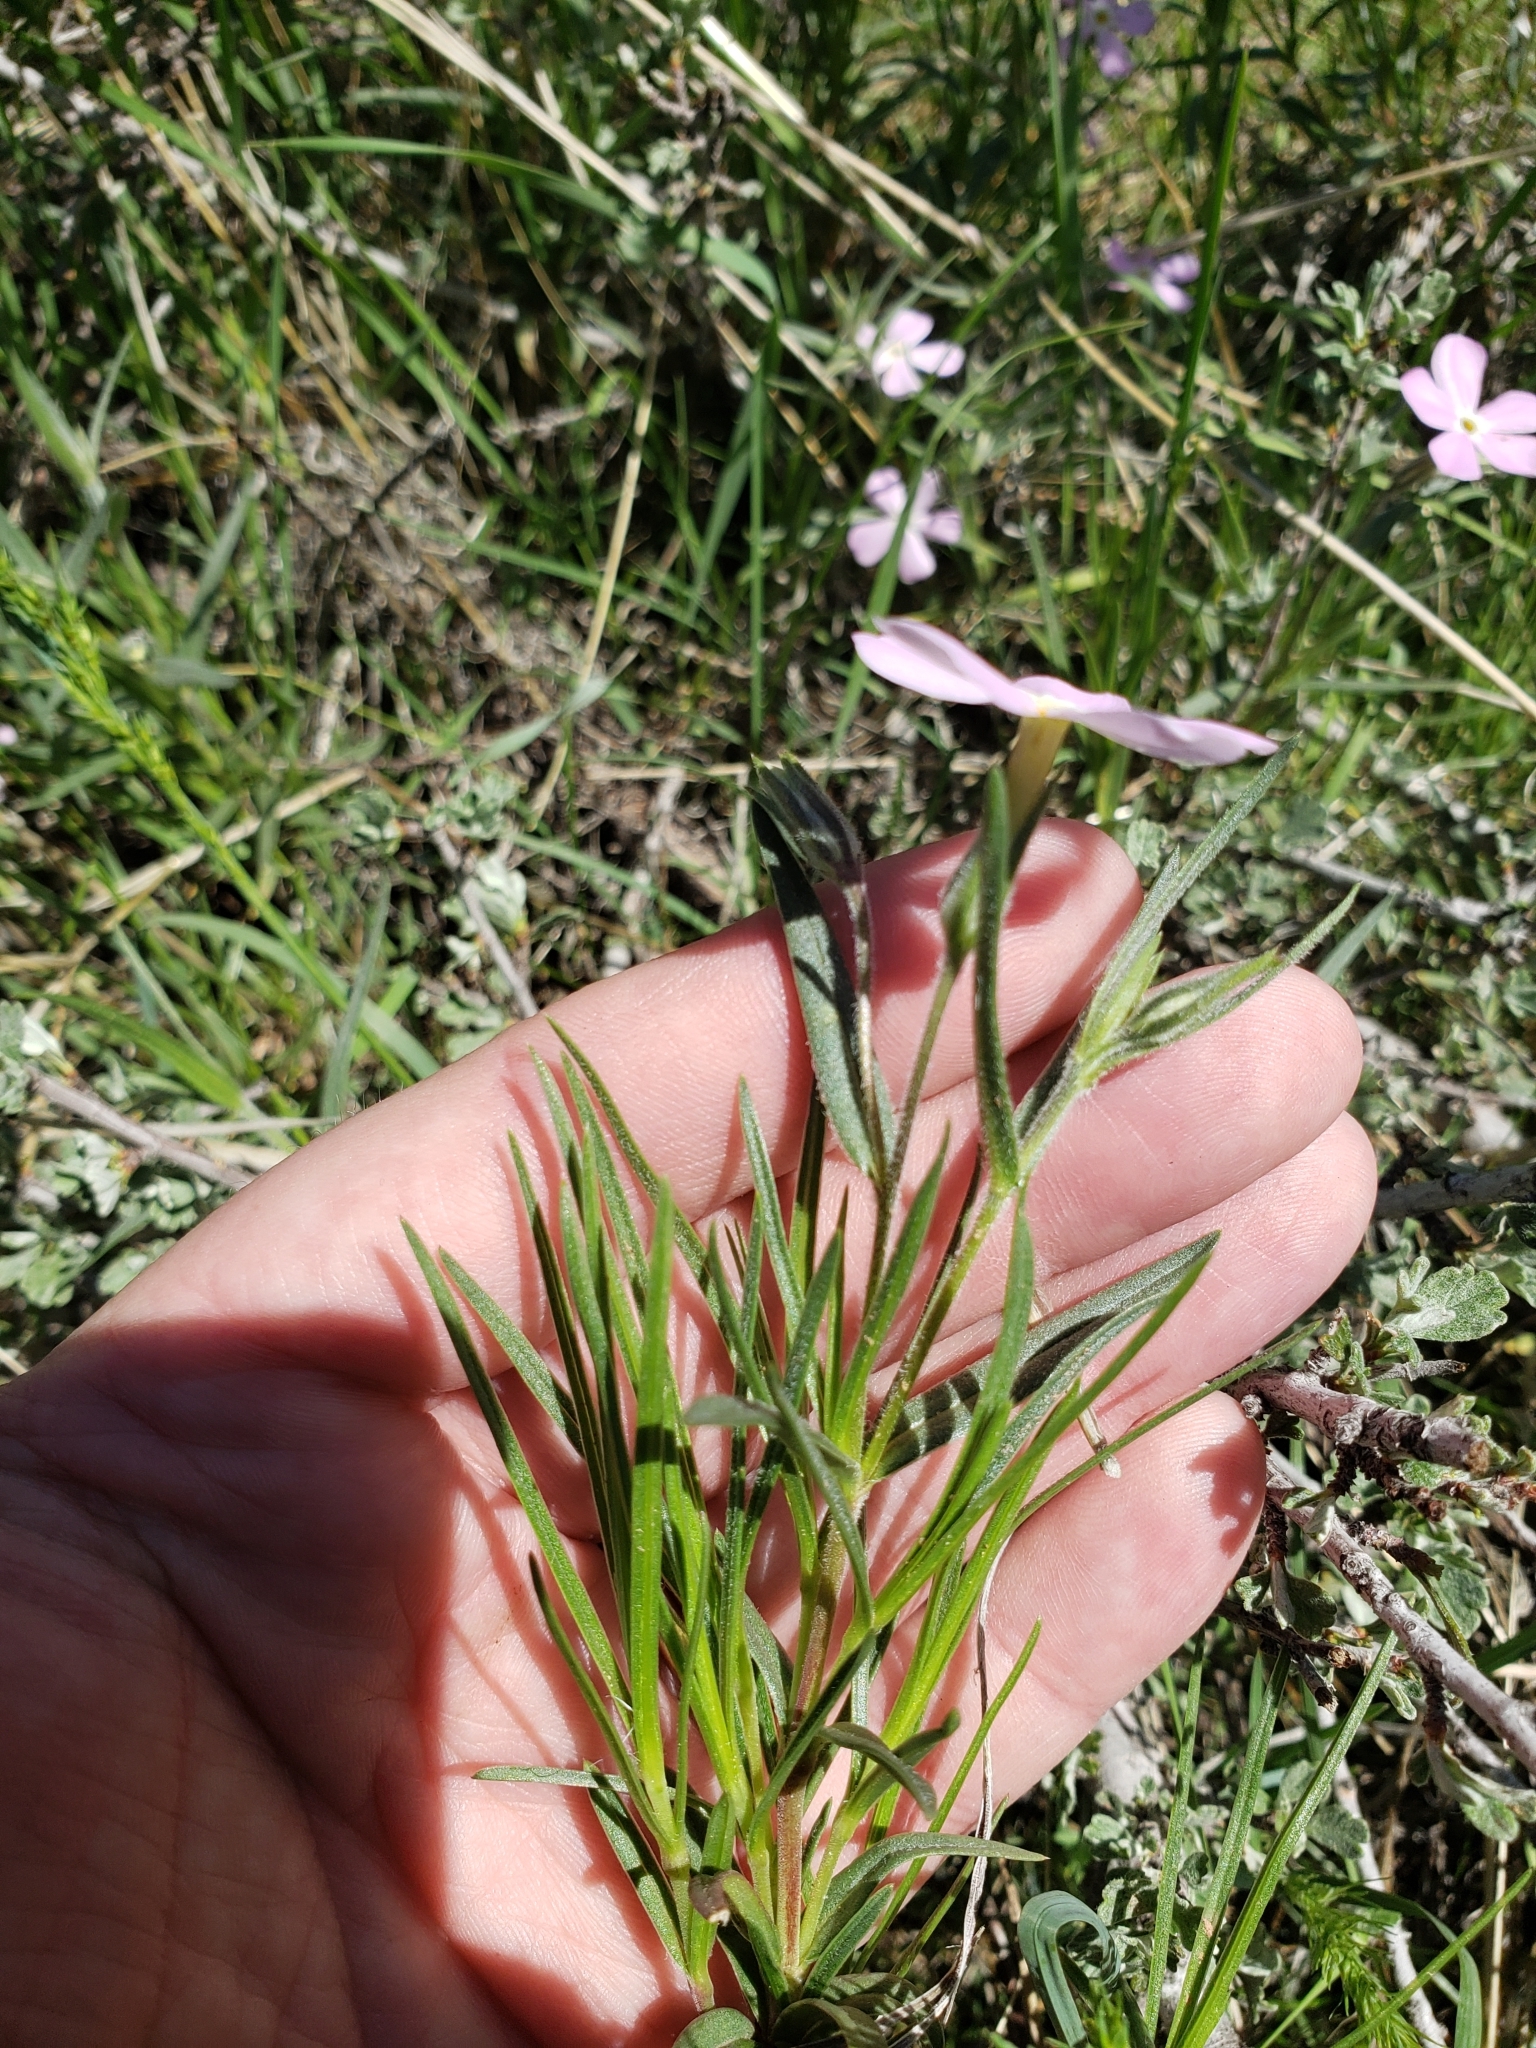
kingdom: Plantae
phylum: Tracheophyta
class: Magnoliopsida
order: Ericales
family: Polemoniaceae
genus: Phlox
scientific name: Phlox longifolia
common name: Longleaf phlox
